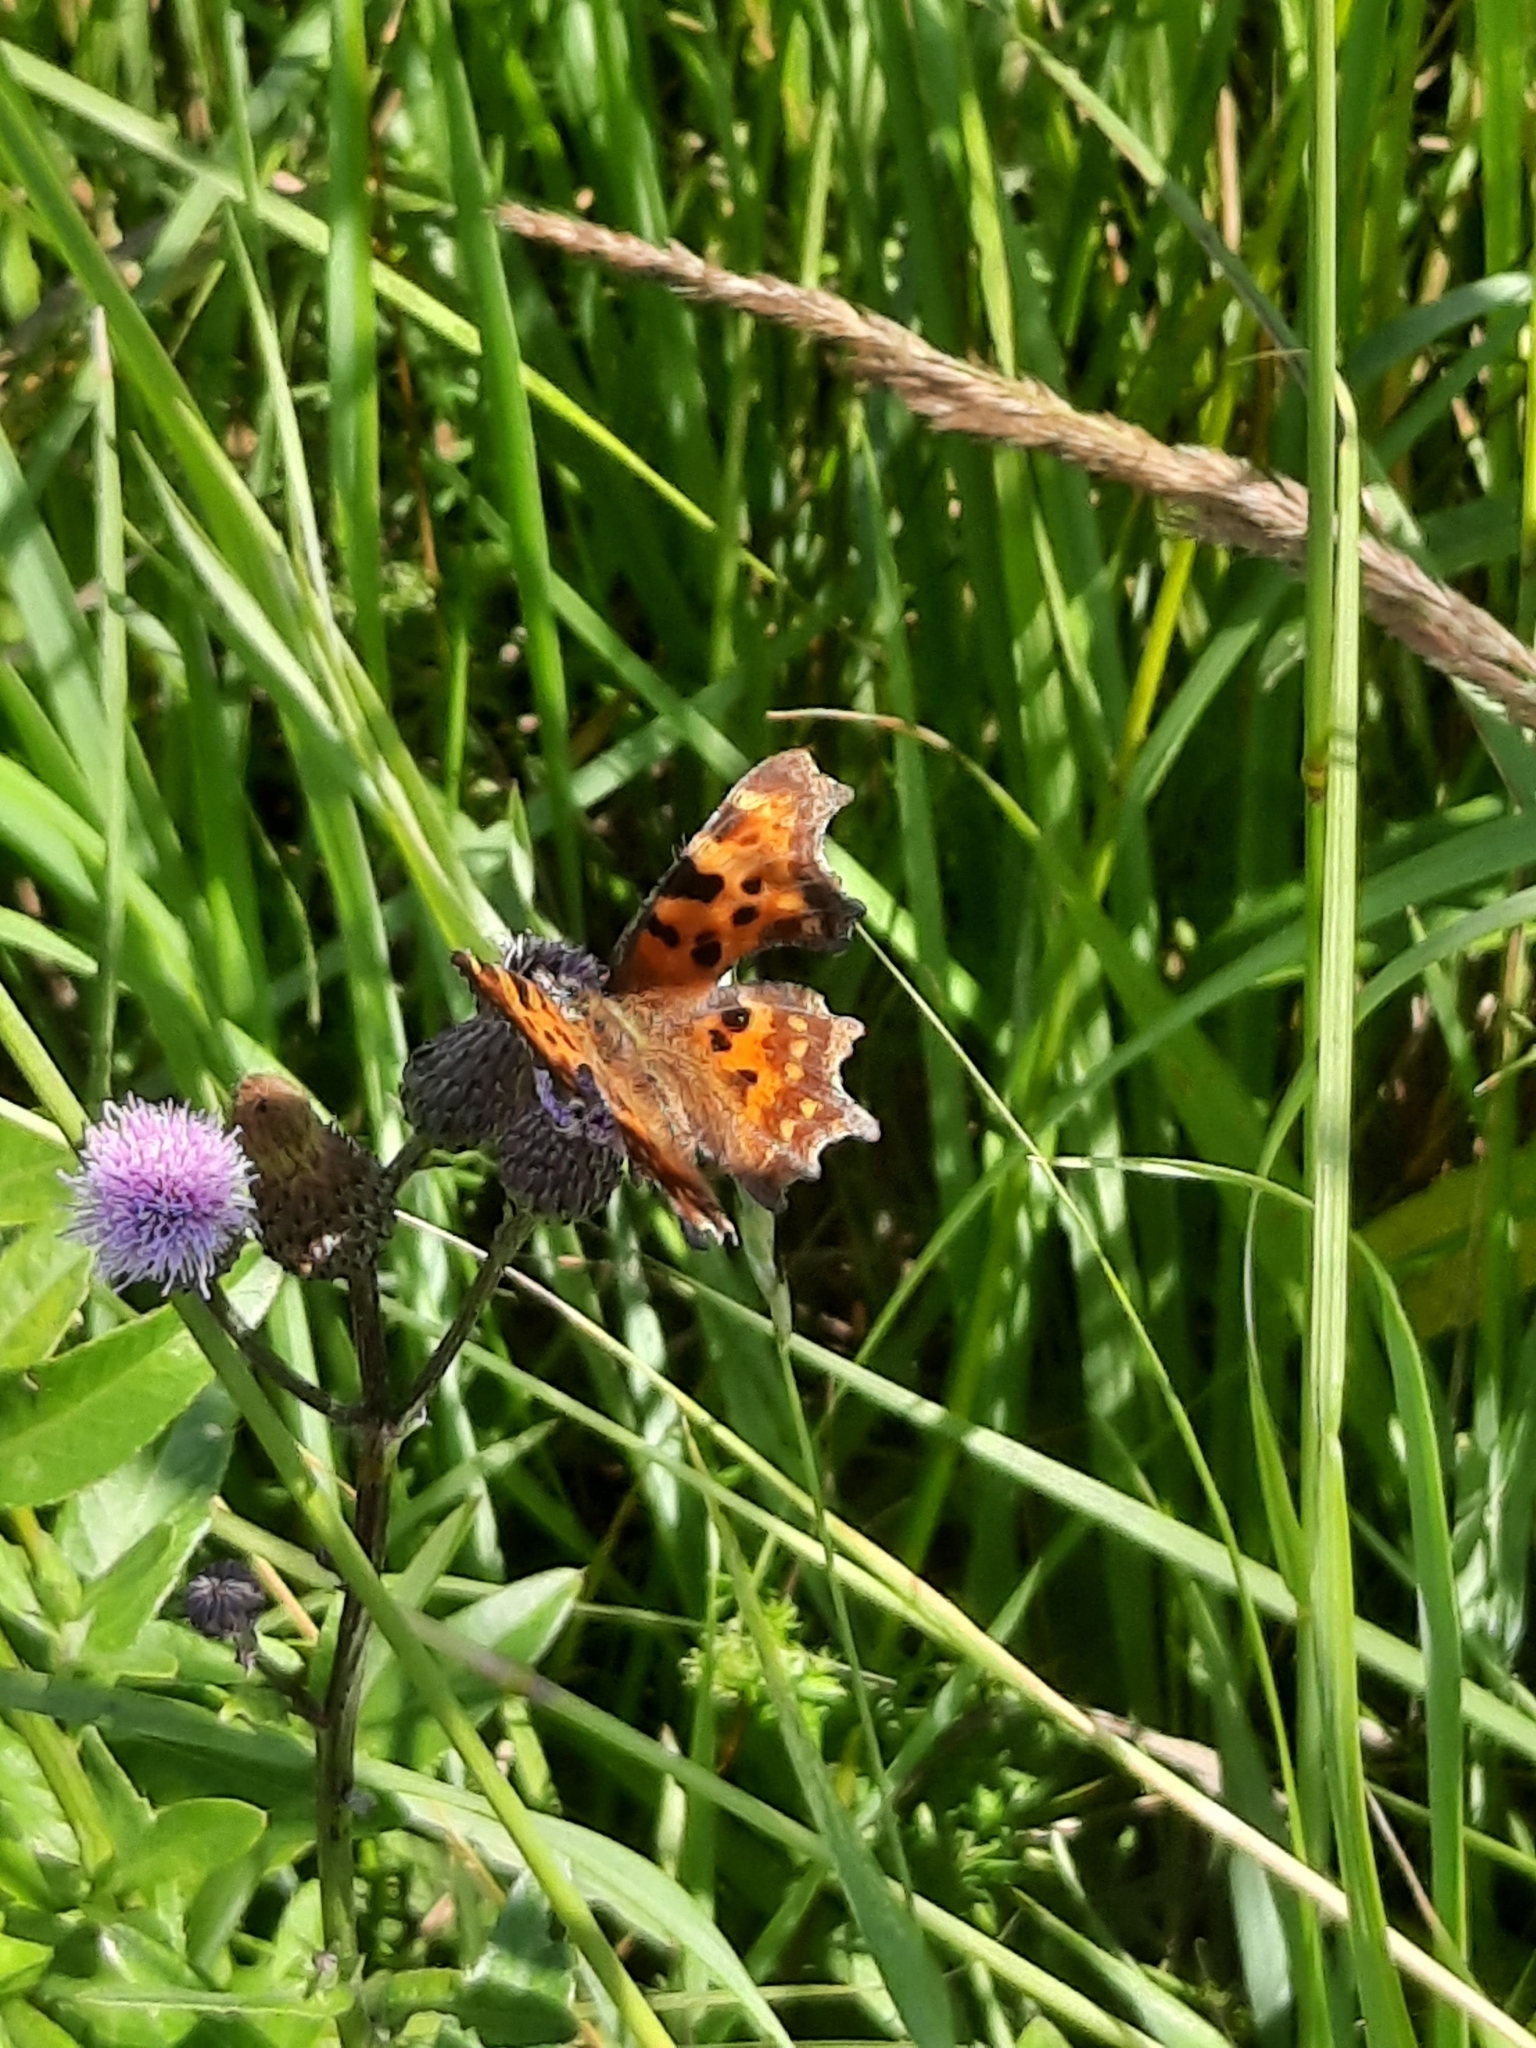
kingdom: Animalia
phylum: Arthropoda
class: Insecta
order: Lepidoptera
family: Nymphalidae
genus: Polygonia
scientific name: Polygonia c-album
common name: Comma
